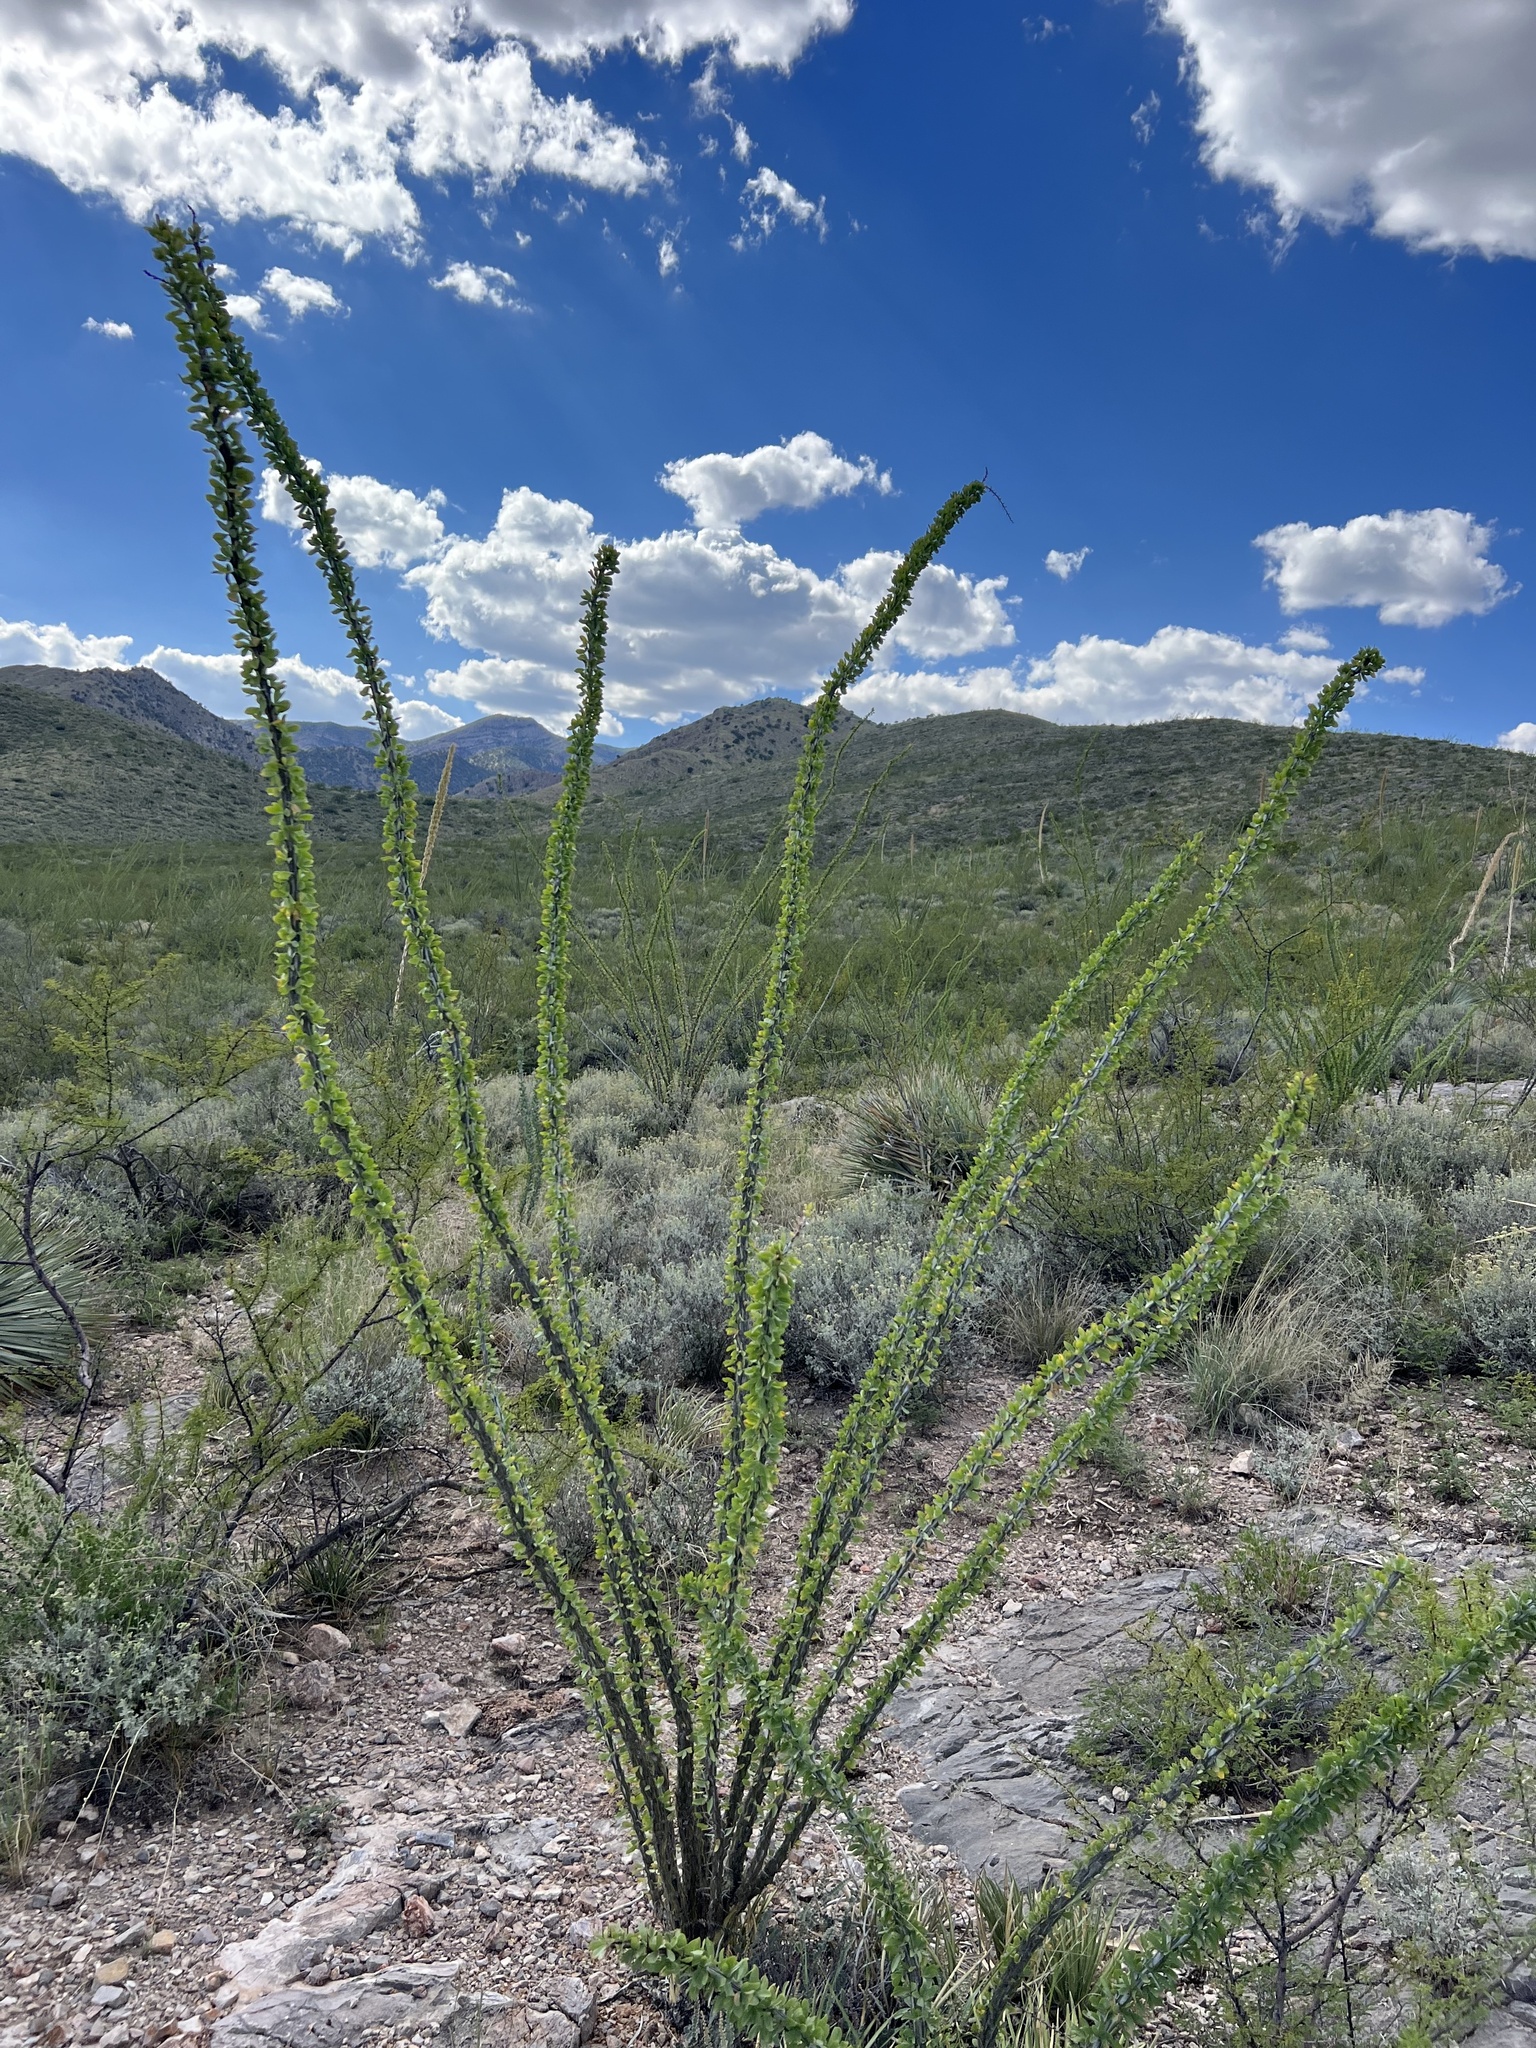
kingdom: Plantae
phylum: Tracheophyta
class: Magnoliopsida
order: Ericales
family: Fouquieriaceae
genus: Fouquieria
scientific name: Fouquieria splendens
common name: Vine-cactus
